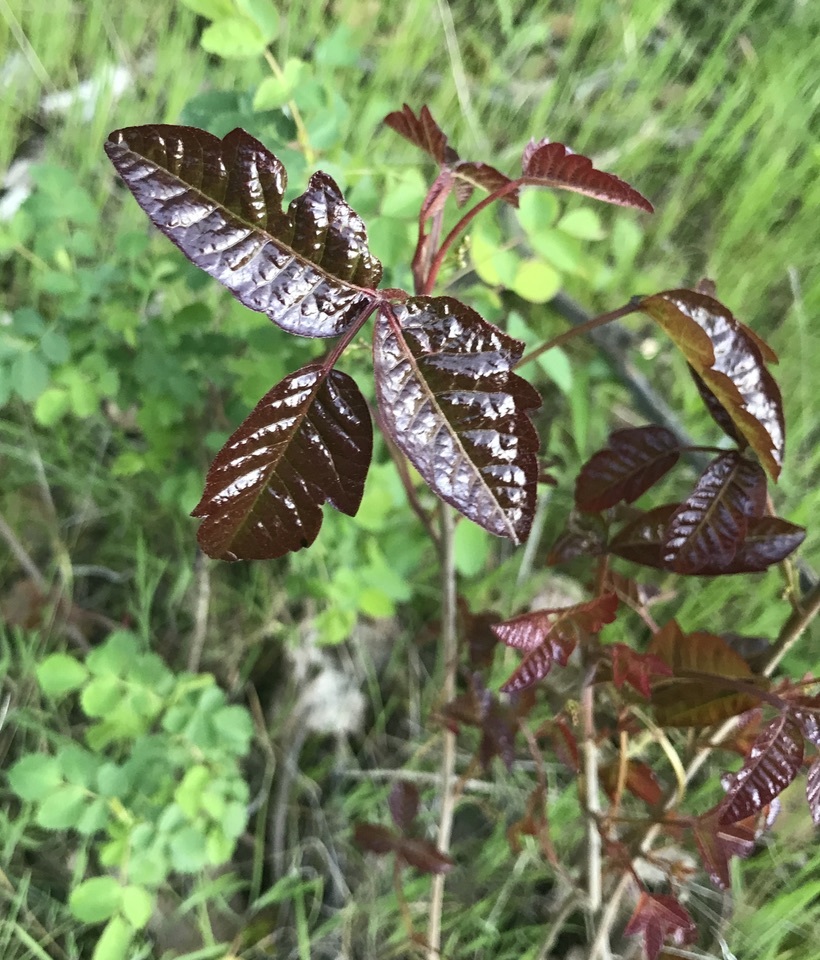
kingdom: Plantae
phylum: Tracheophyta
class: Magnoliopsida
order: Sapindales
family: Anacardiaceae
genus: Toxicodendron
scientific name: Toxicodendron diversilobum
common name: Pacific poison-oak
